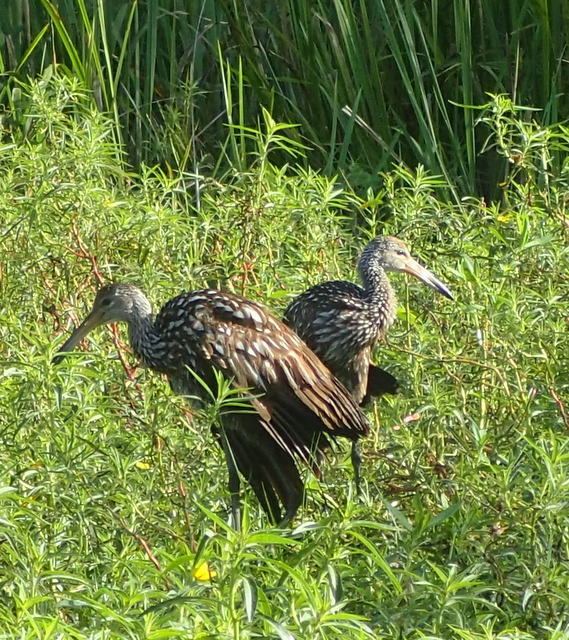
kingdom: Animalia
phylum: Chordata
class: Aves
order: Gruiformes
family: Aramidae
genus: Aramus
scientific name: Aramus guarauna
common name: Limpkin
